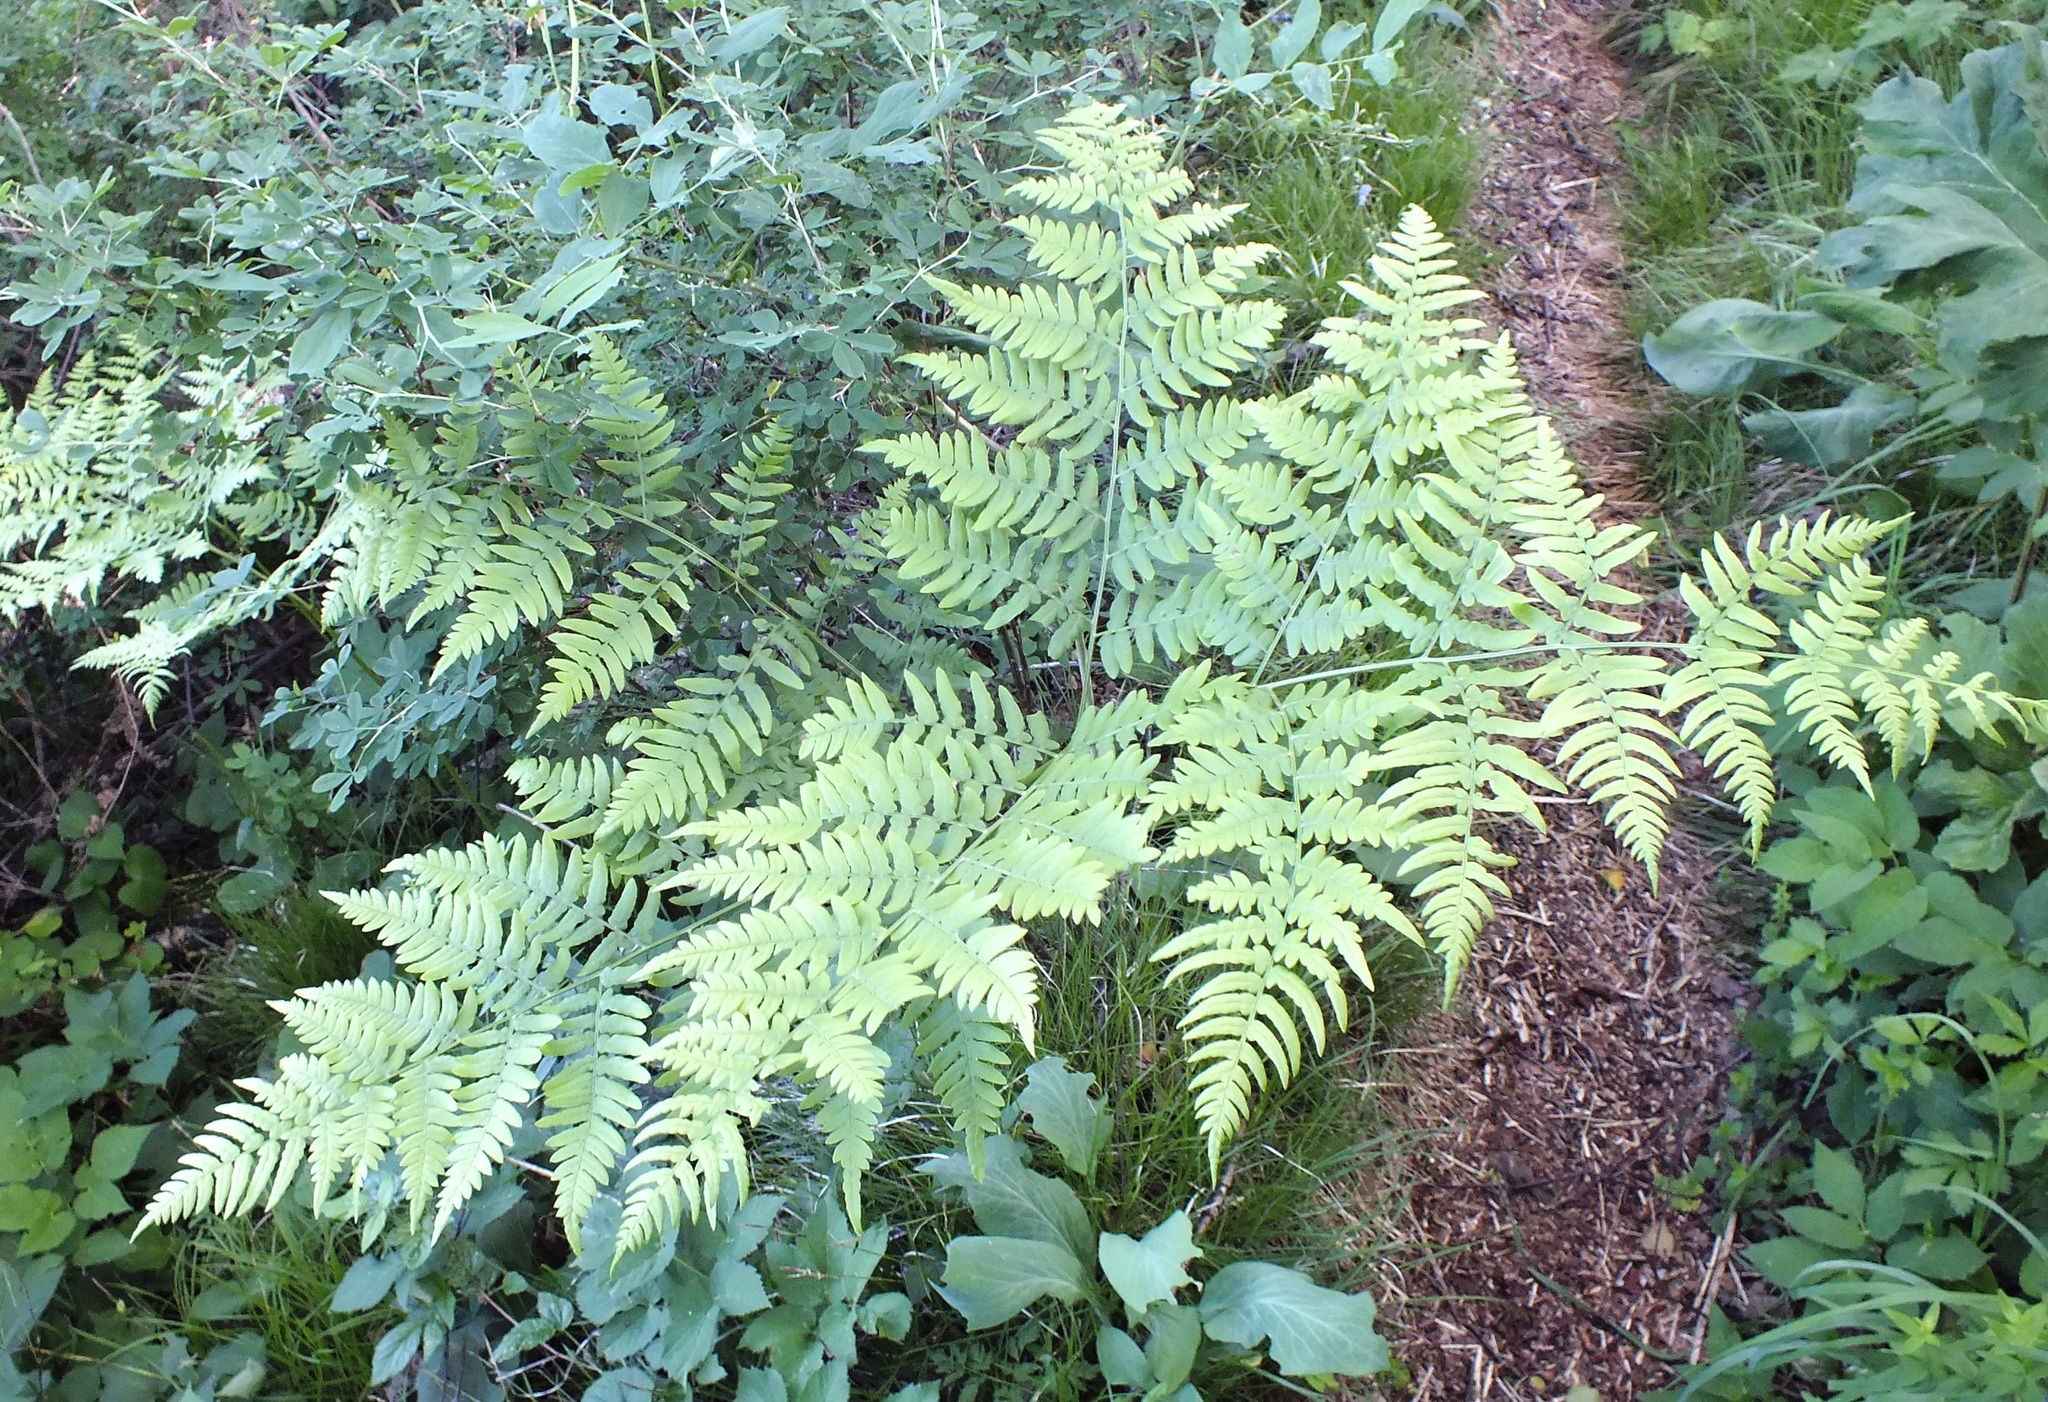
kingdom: Plantae
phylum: Tracheophyta
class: Polypodiopsida
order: Polypodiales
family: Dennstaedtiaceae
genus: Pteridium
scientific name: Pteridium aquilinum
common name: Bracken
